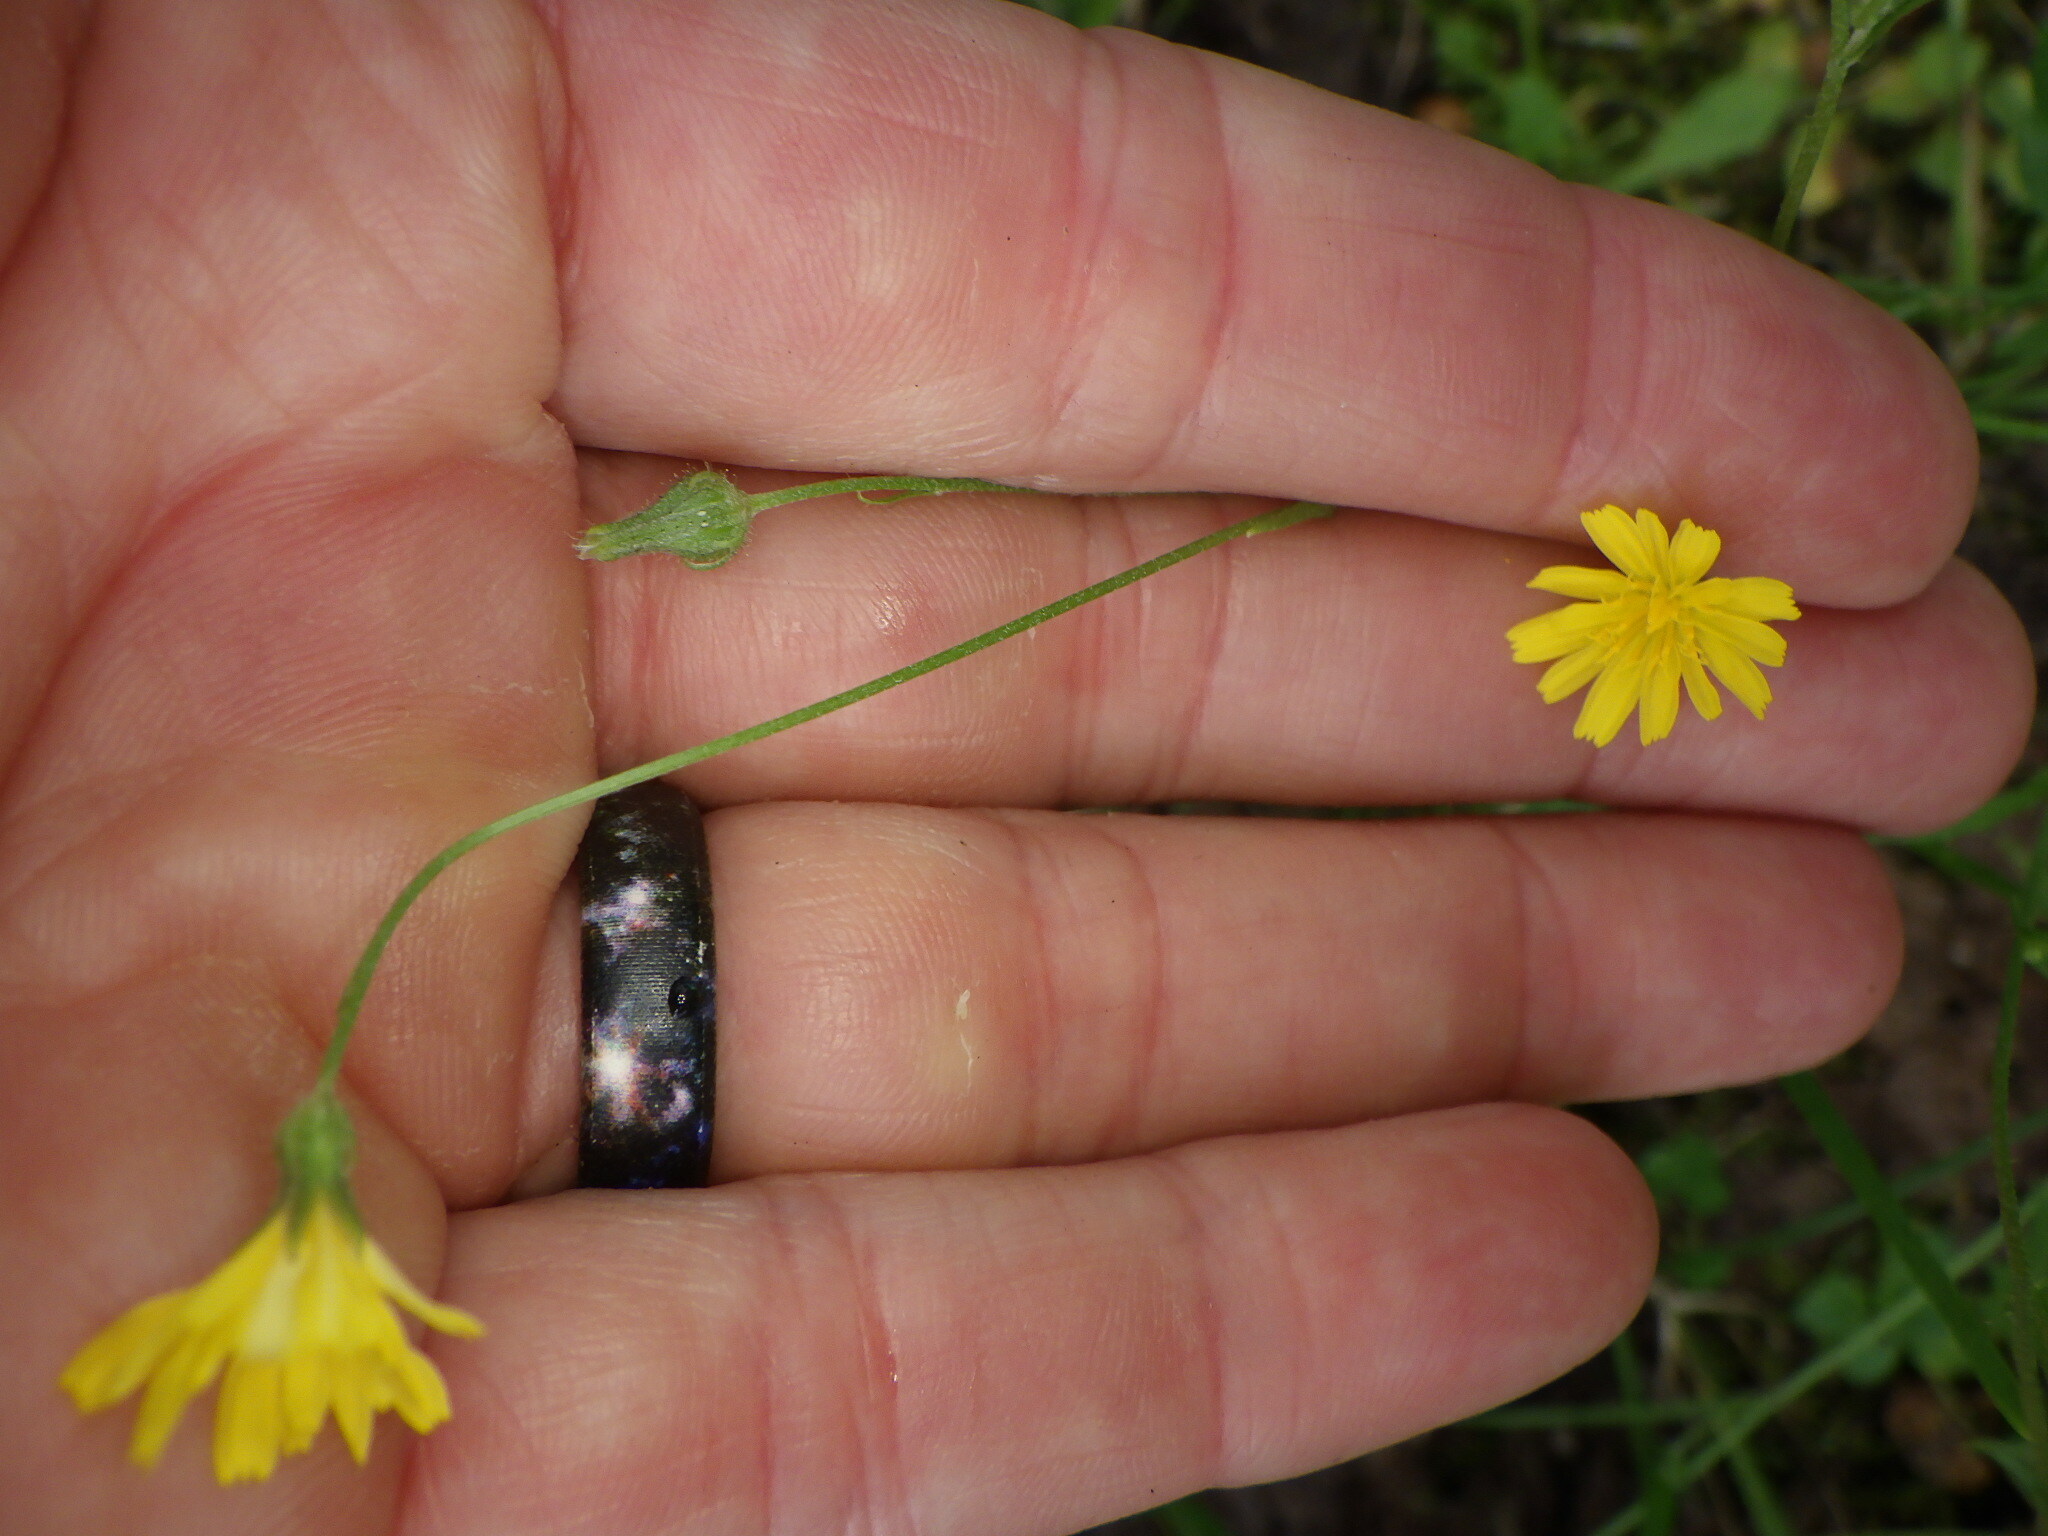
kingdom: Plantae
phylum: Tracheophyta
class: Magnoliopsida
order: Asterales
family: Asteraceae
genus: Crepis
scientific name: Crepis capillaris
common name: Smooth hawksbeard
